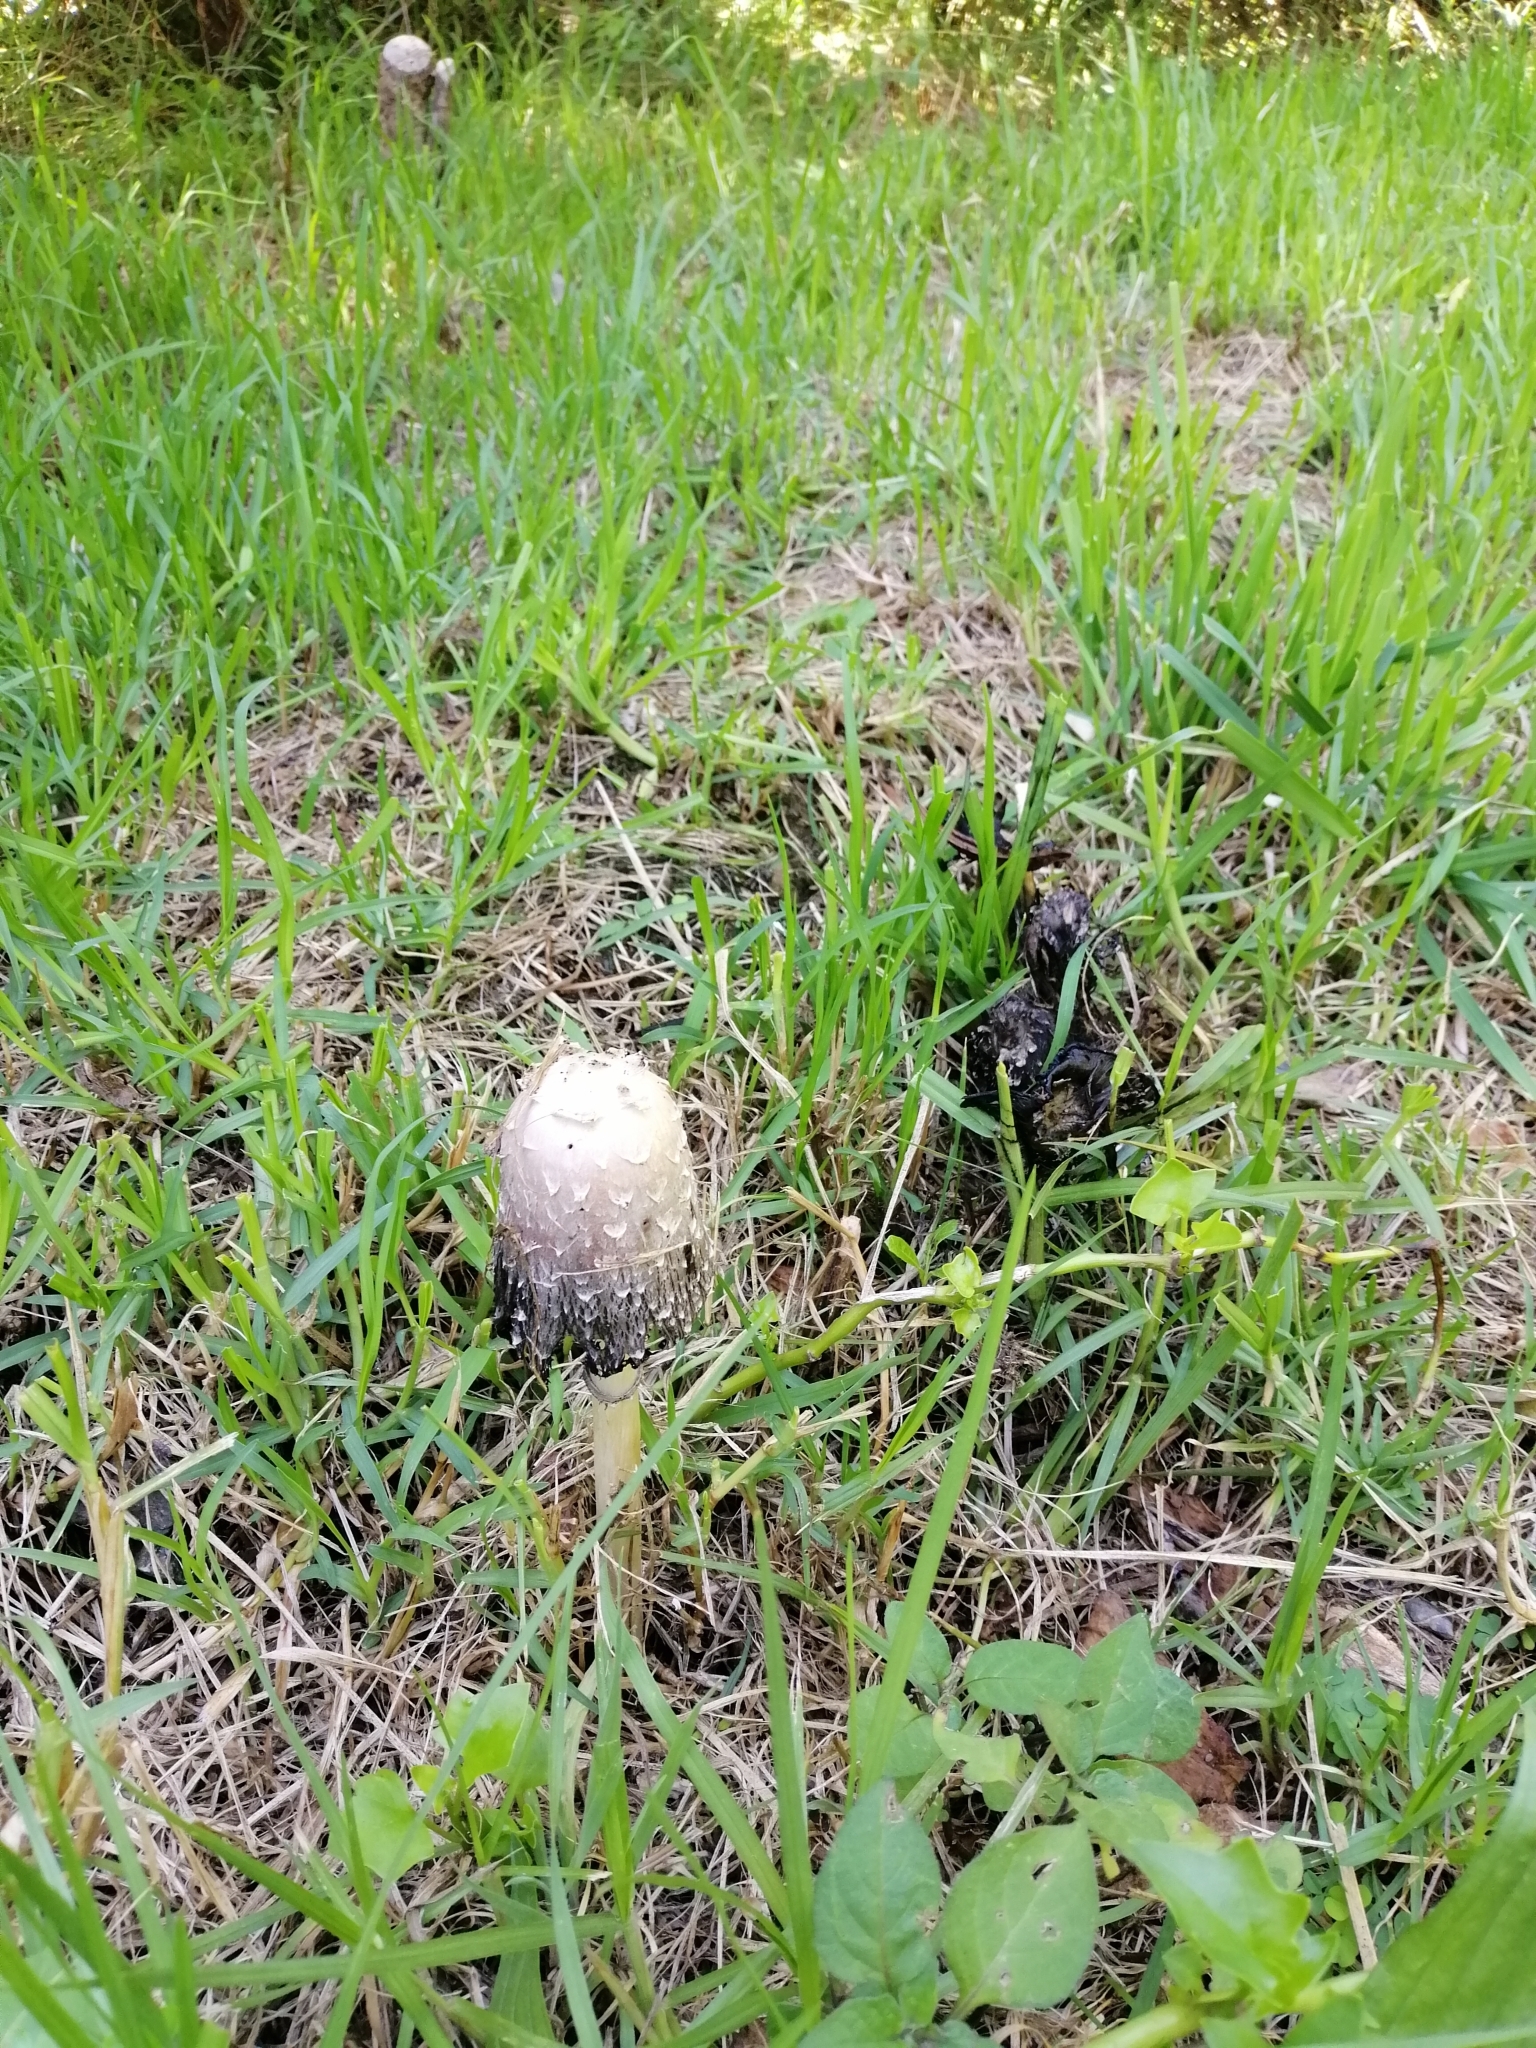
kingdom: Fungi
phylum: Basidiomycota
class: Agaricomycetes
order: Agaricales
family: Agaricaceae
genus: Coprinus
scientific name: Coprinus comatus
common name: Lawyer's wig
